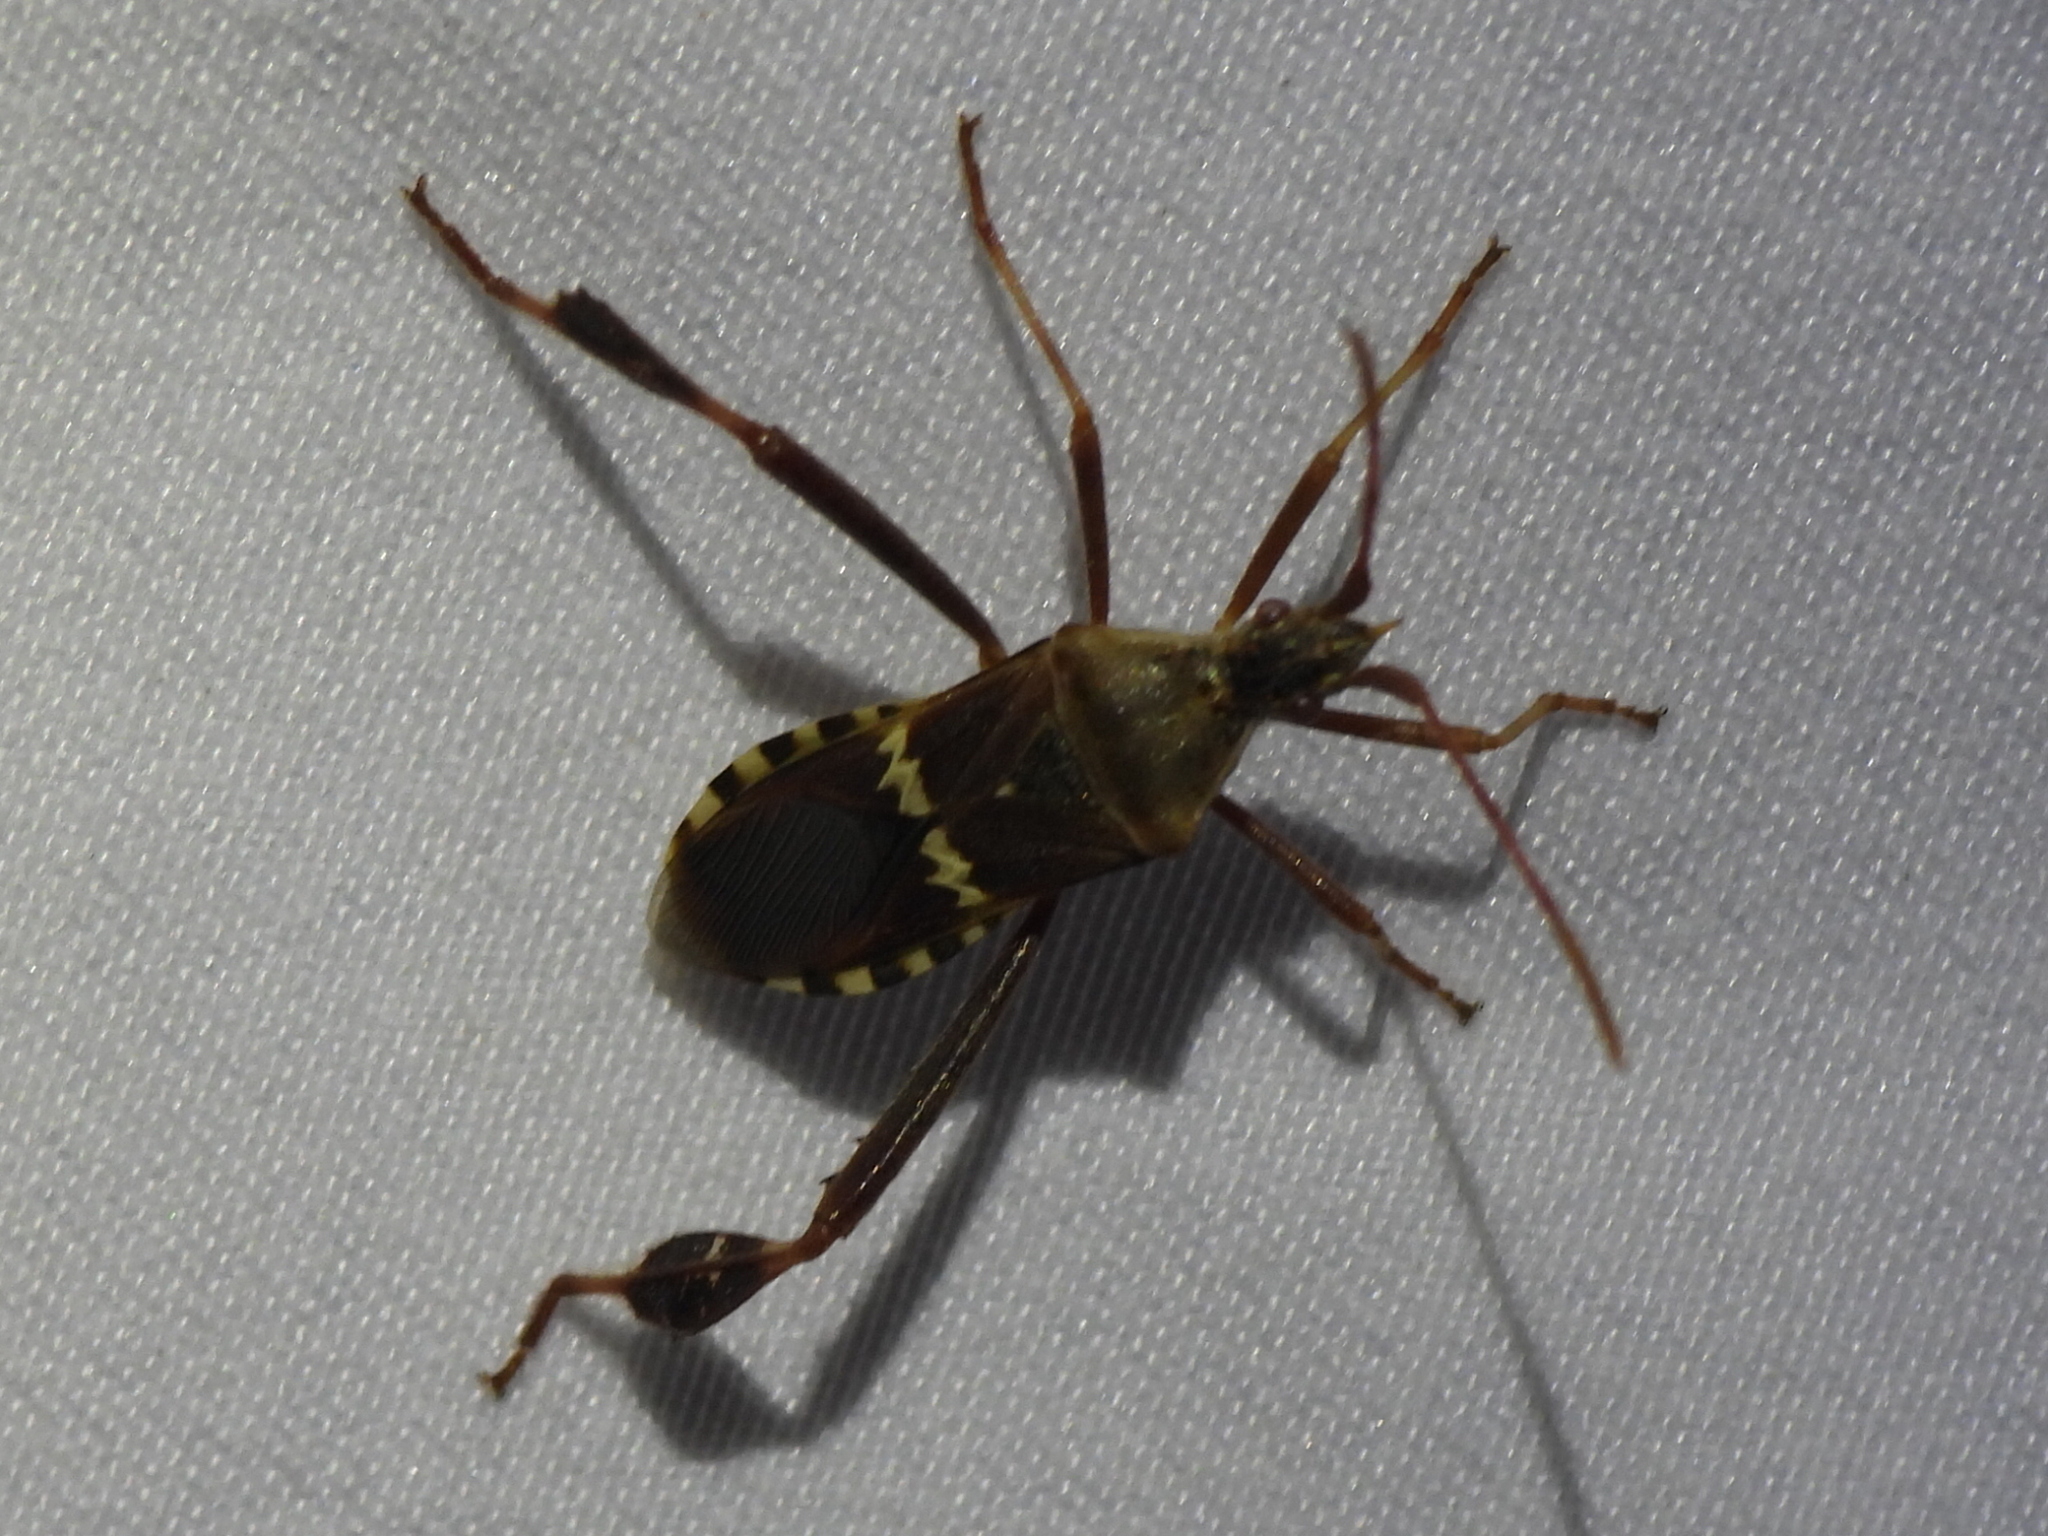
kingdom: Animalia
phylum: Arthropoda
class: Insecta
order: Hemiptera
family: Coreidae
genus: Leptoglossus
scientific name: Leptoglossus clypealis
